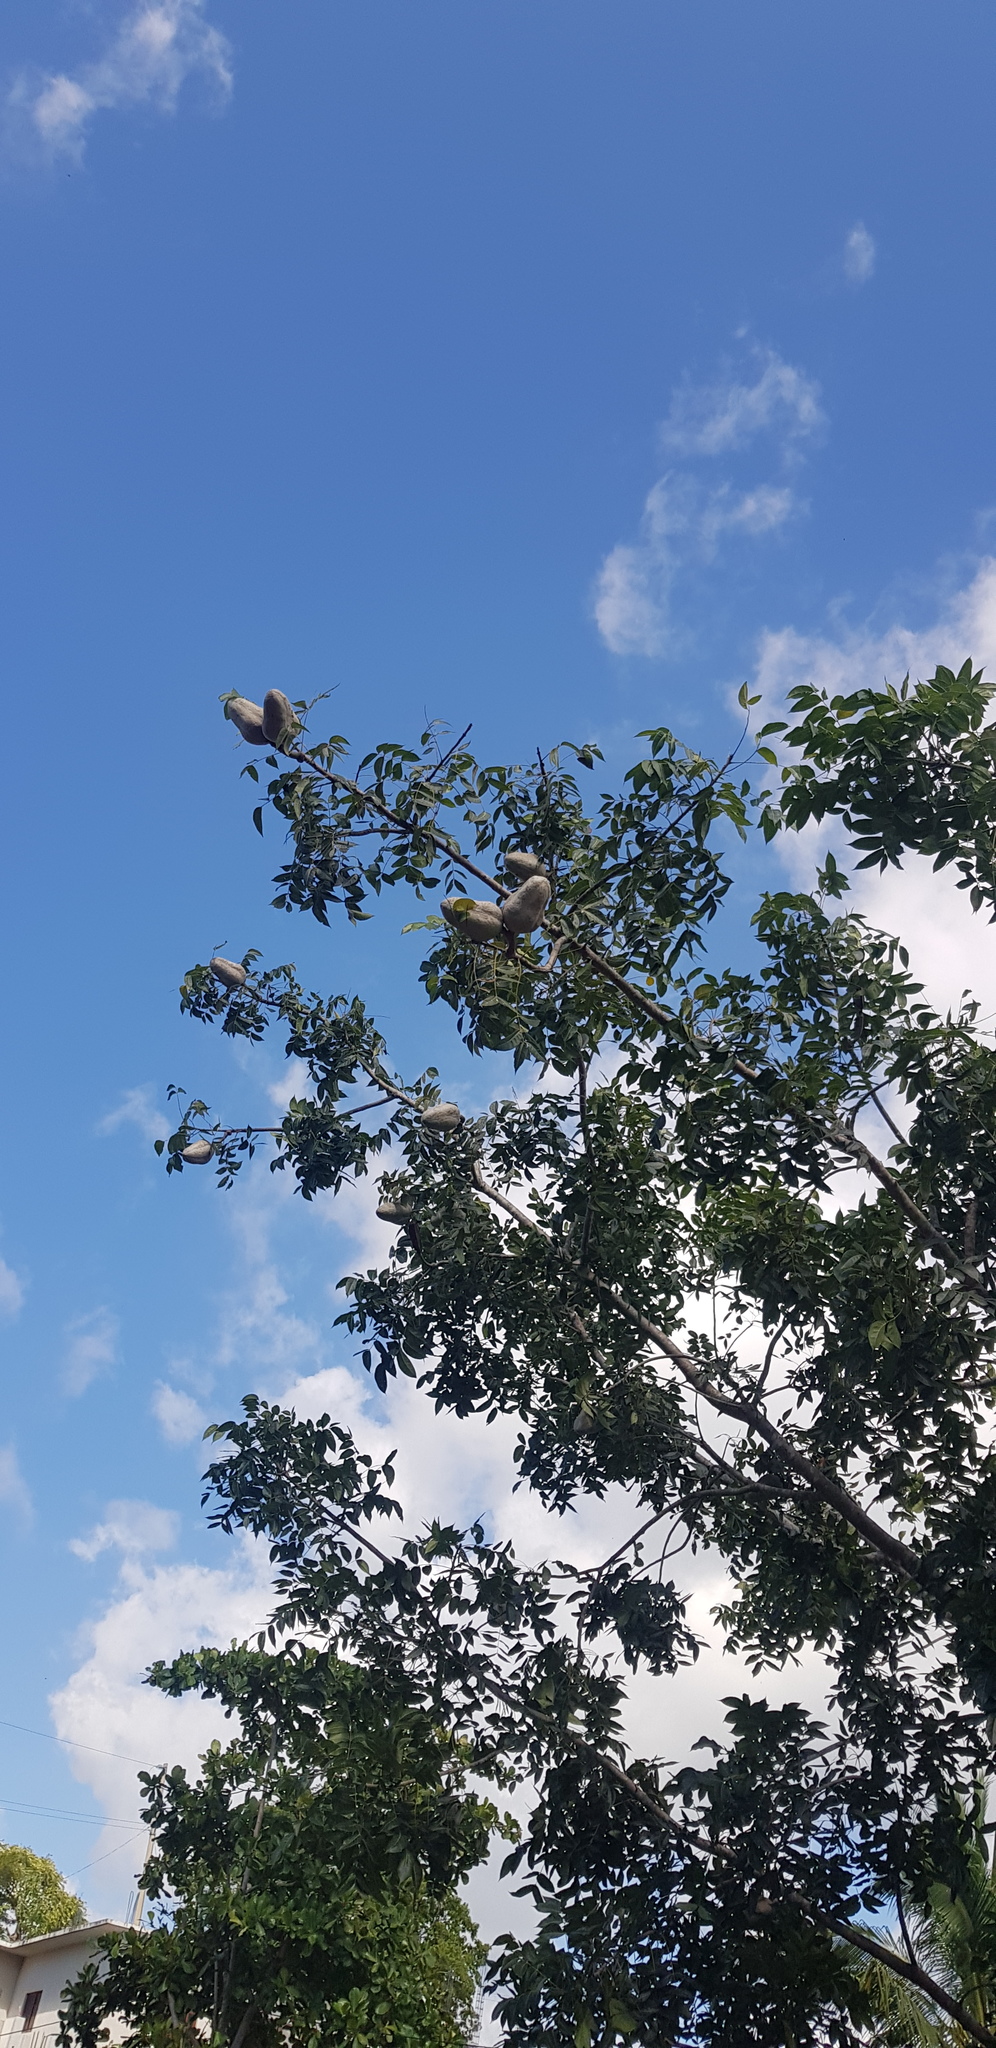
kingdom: Plantae
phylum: Tracheophyta
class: Magnoliopsida
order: Sapindales
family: Meliaceae
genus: Swietenia
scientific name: Swietenia macrophylla
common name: Honduras mahogany
